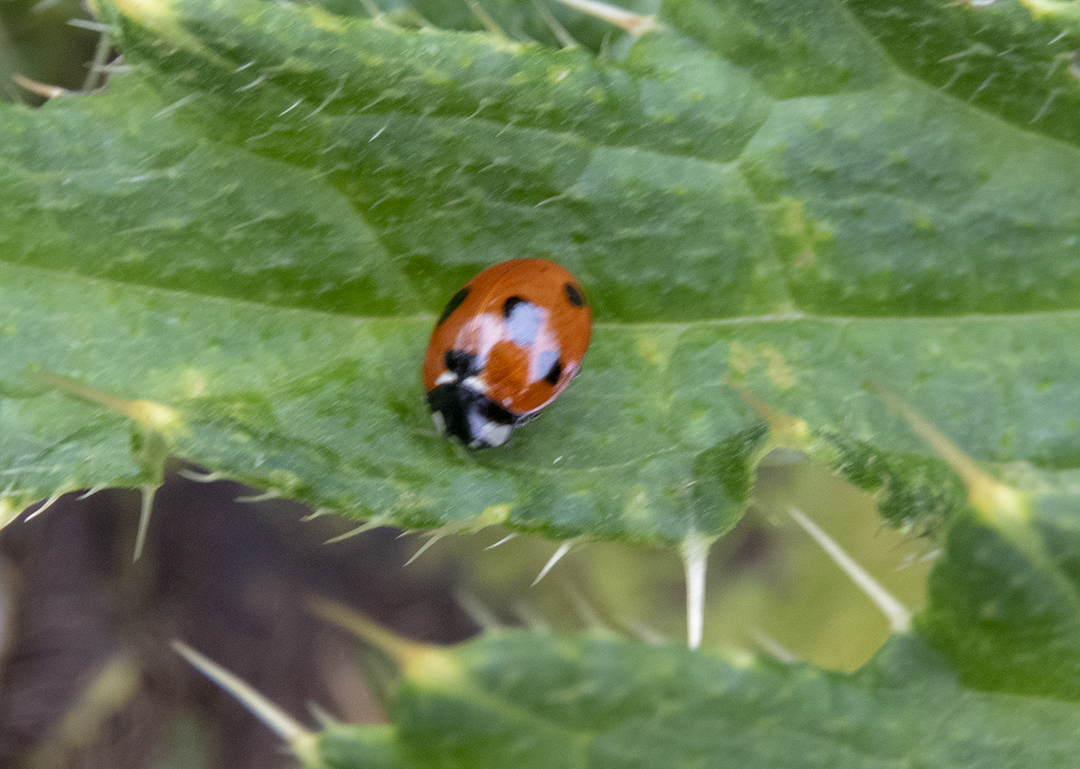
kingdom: Animalia
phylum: Arthropoda
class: Insecta
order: Coleoptera
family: Coccinellidae
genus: Coccinella
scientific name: Coccinella septempunctata
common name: Sevenspotted lady beetle
